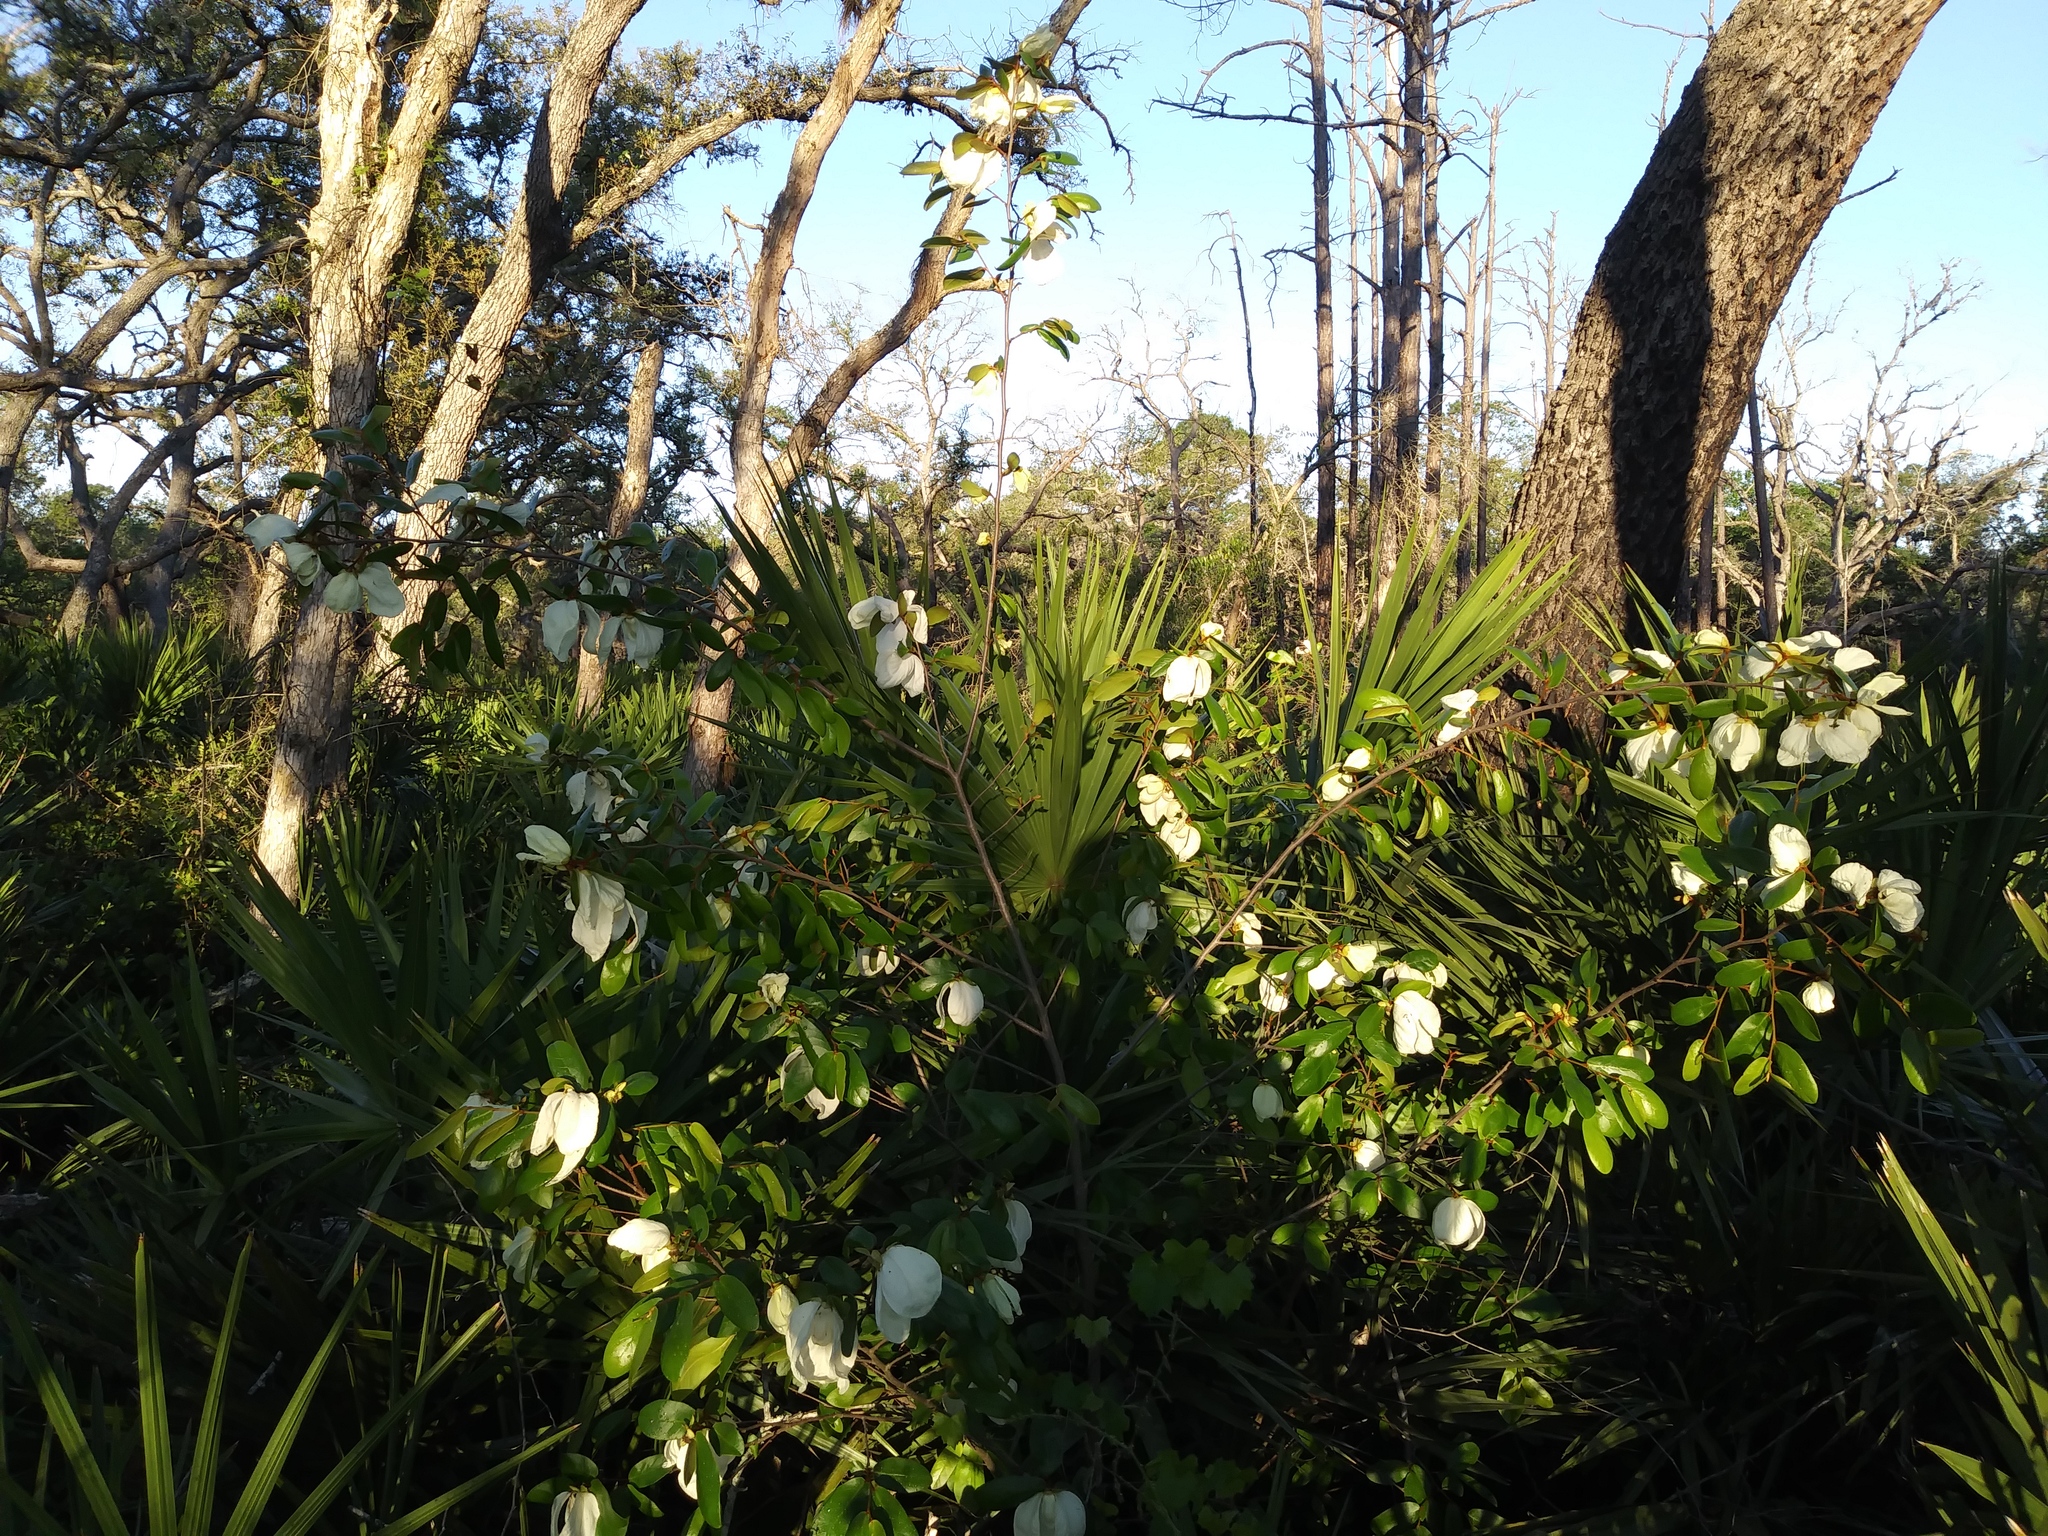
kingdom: Plantae
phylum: Tracheophyta
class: Magnoliopsida
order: Magnoliales
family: Annonaceae
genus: Asimina
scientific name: Asimina obovata
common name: Flag pawpaw
